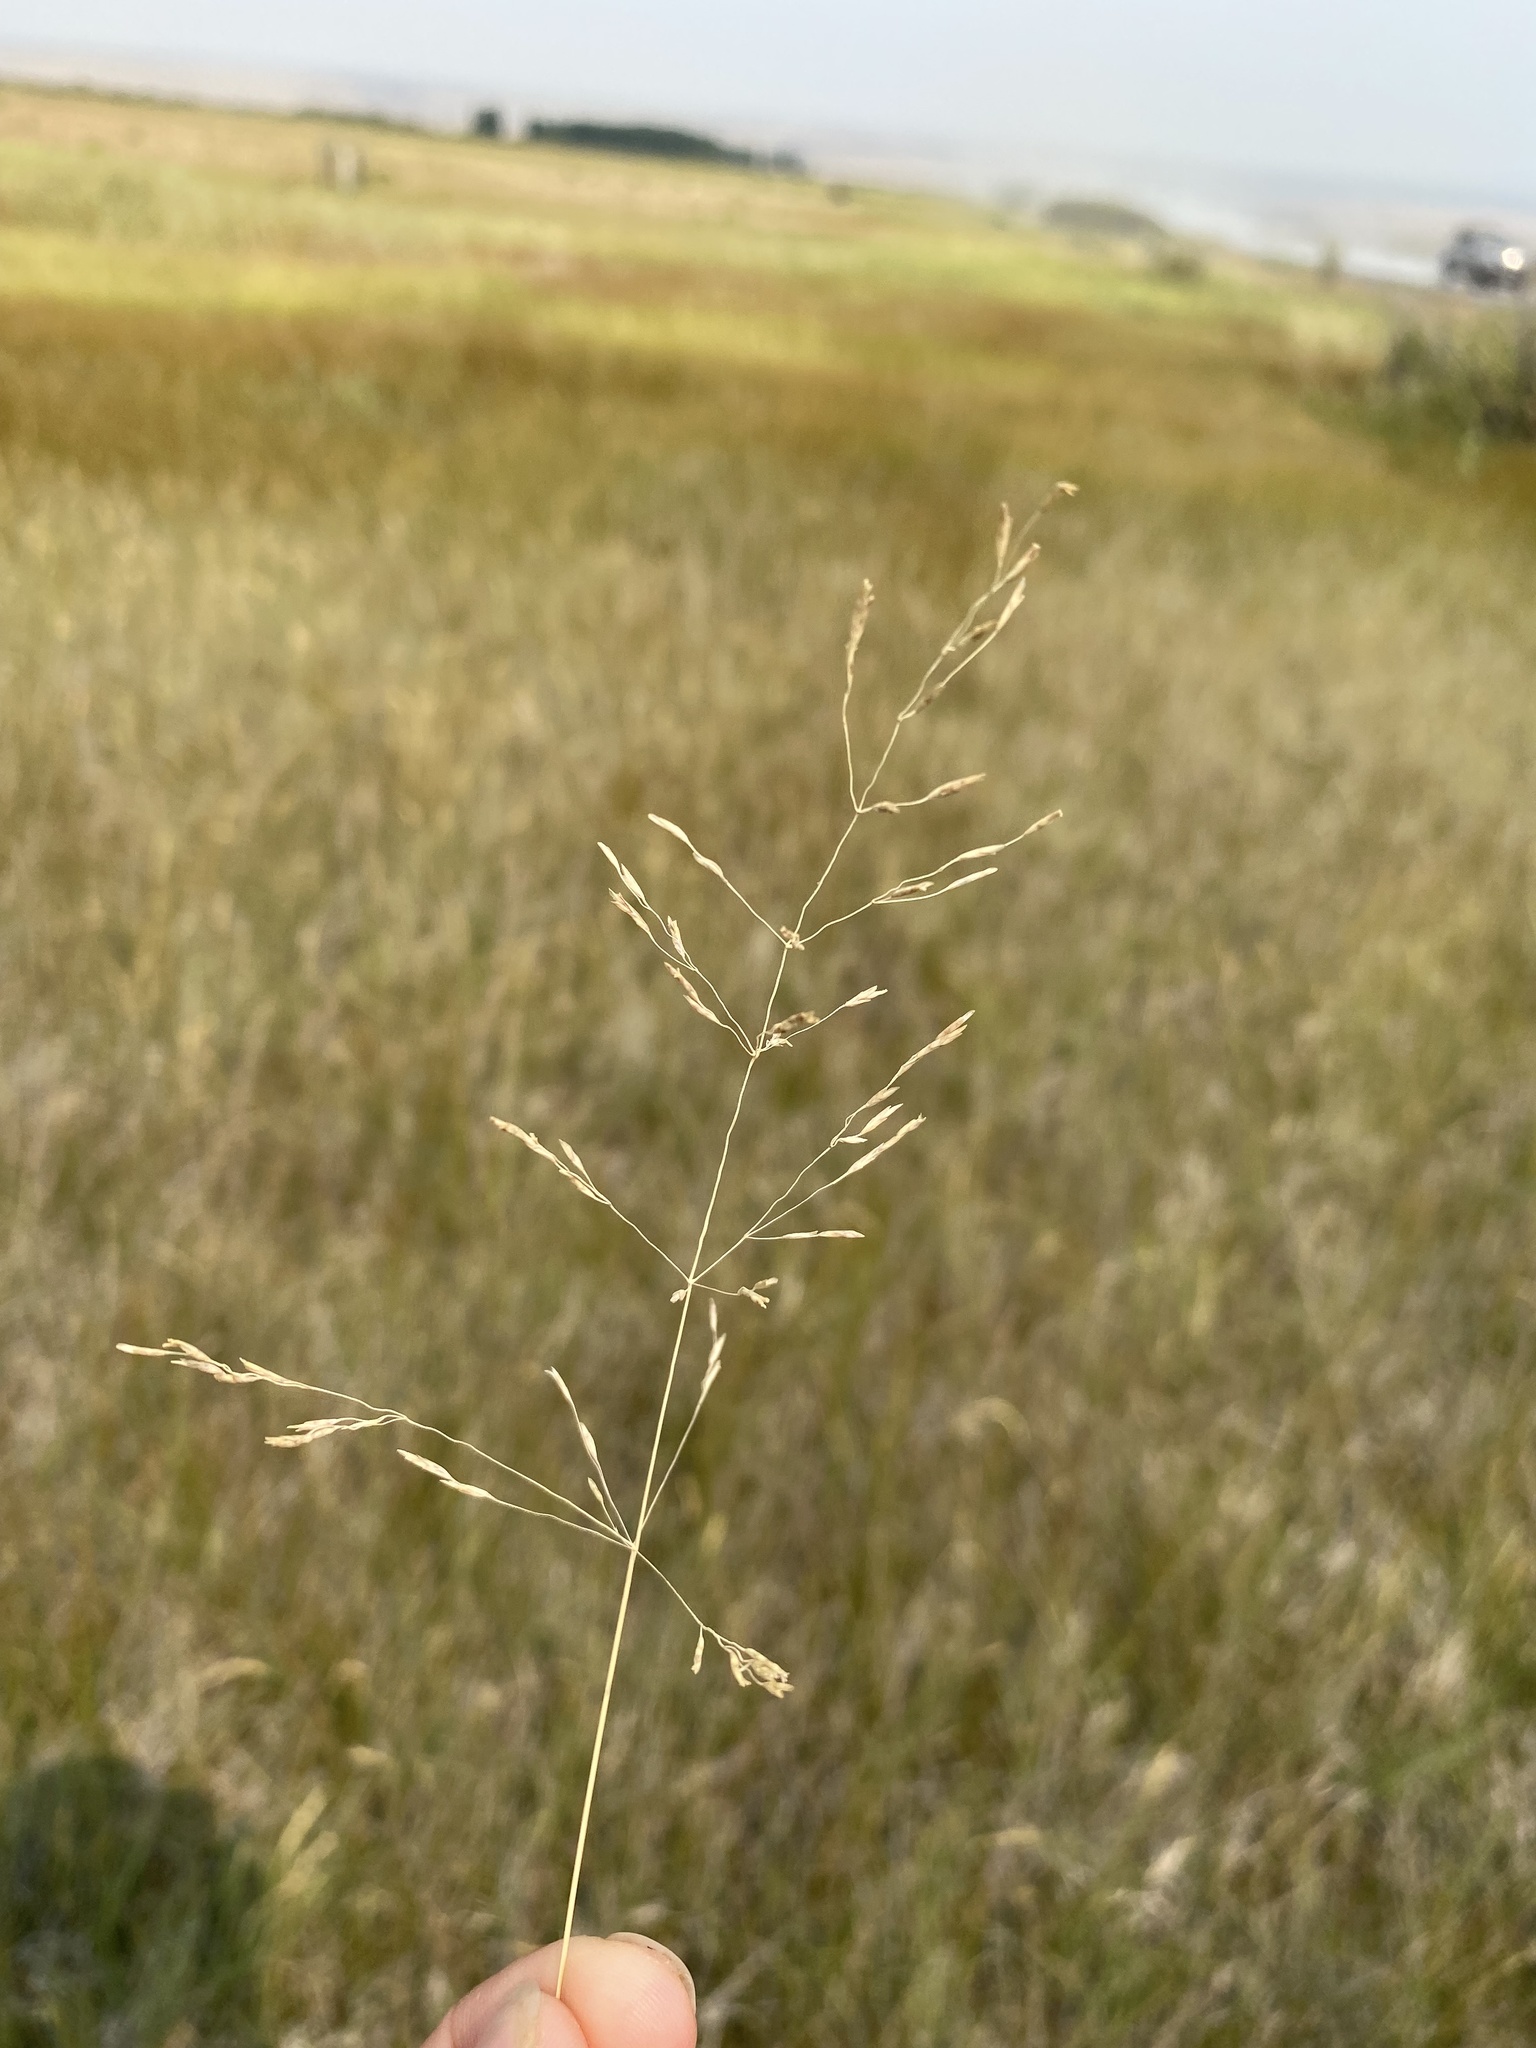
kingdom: Plantae
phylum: Tracheophyta
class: Liliopsida
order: Poales
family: Poaceae
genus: Puccinellia
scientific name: Puccinellia lemmonii
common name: Lemmon's alkali grass
